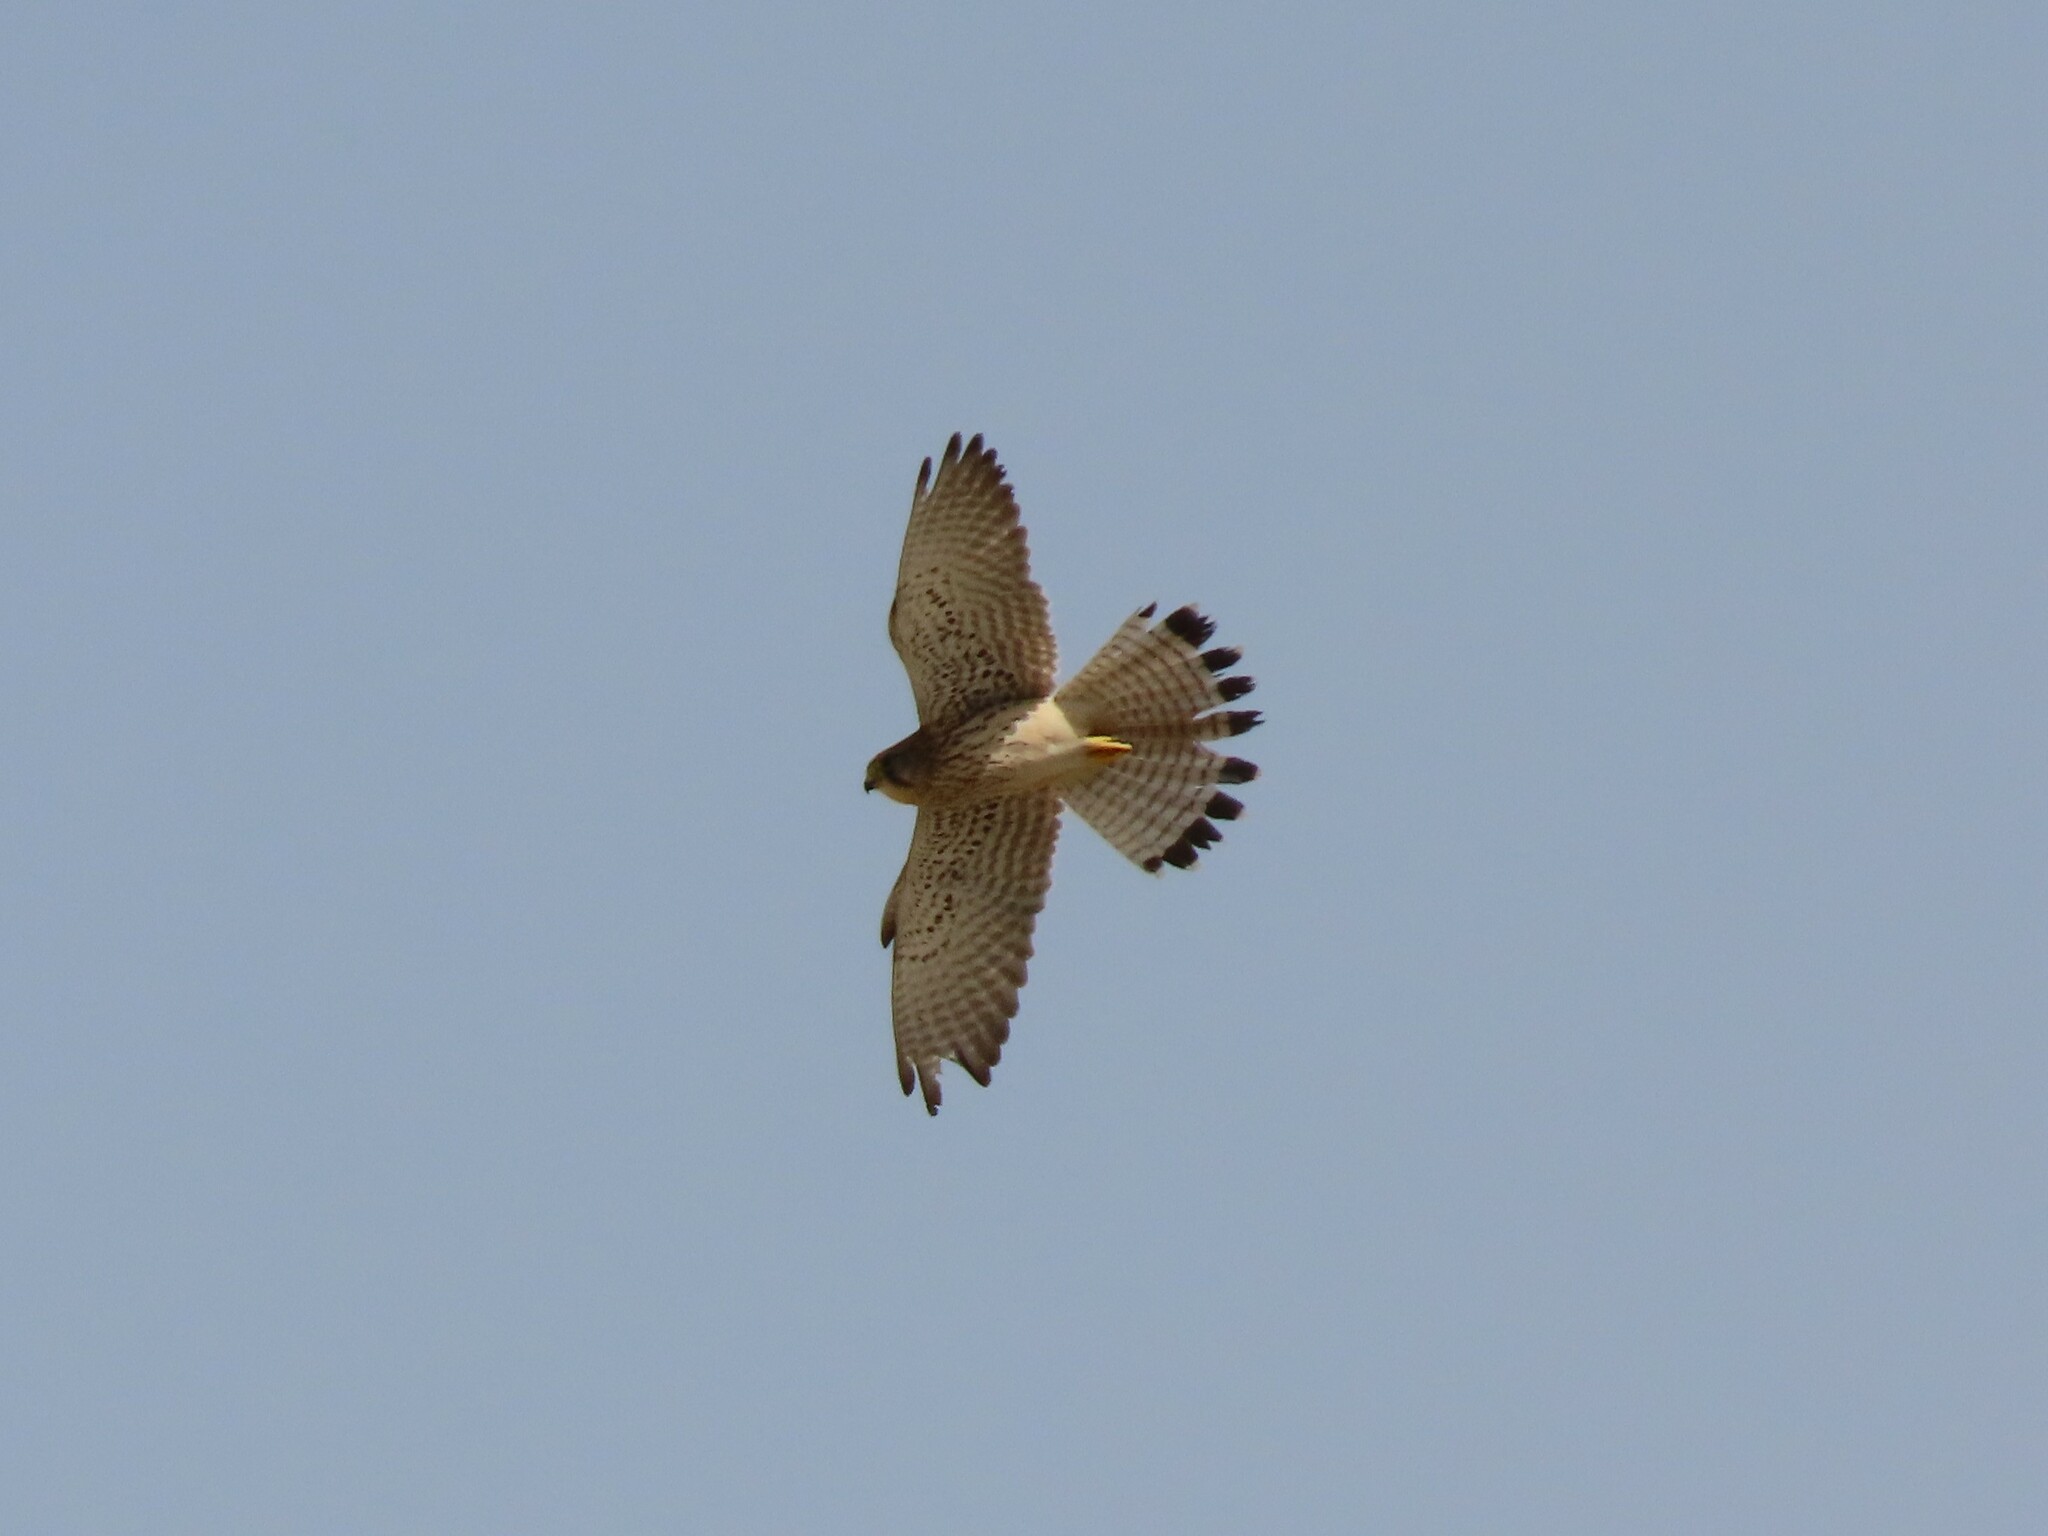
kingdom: Animalia
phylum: Chordata
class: Aves
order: Falconiformes
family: Falconidae
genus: Falco
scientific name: Falco tinnunculus
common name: Common kestrel
